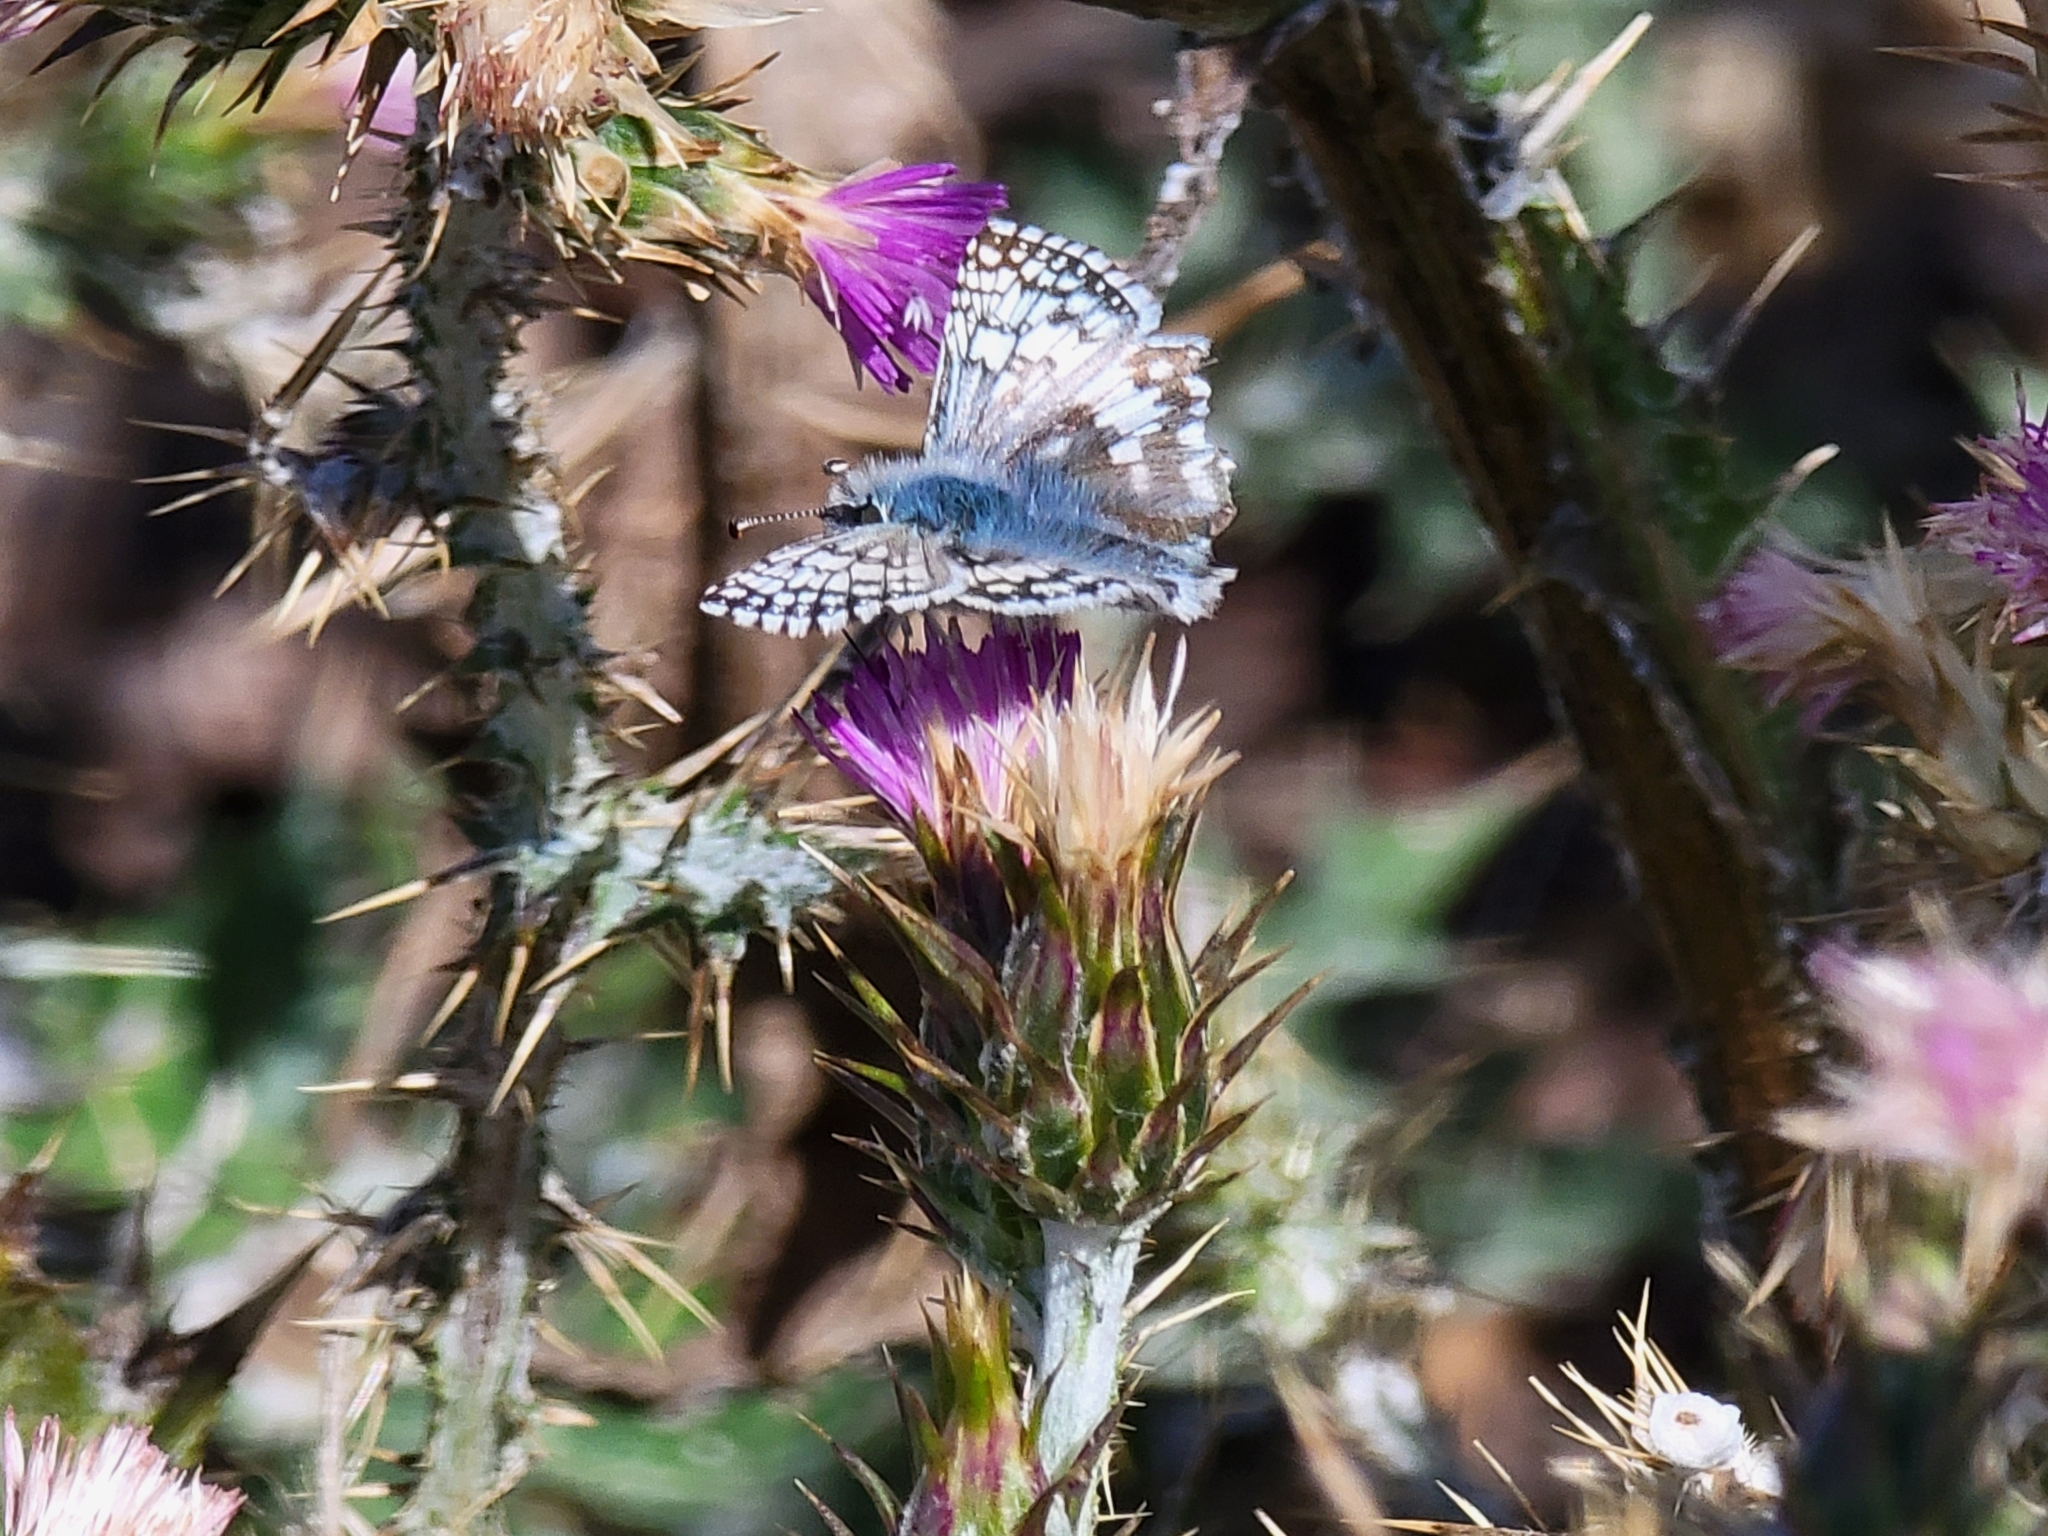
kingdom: Animalia
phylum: Arthropoda
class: Insecta
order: Lepidoptera
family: Hesperiidae
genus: Burnsius
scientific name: Burnsius communis
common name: Common checkered-skipper
